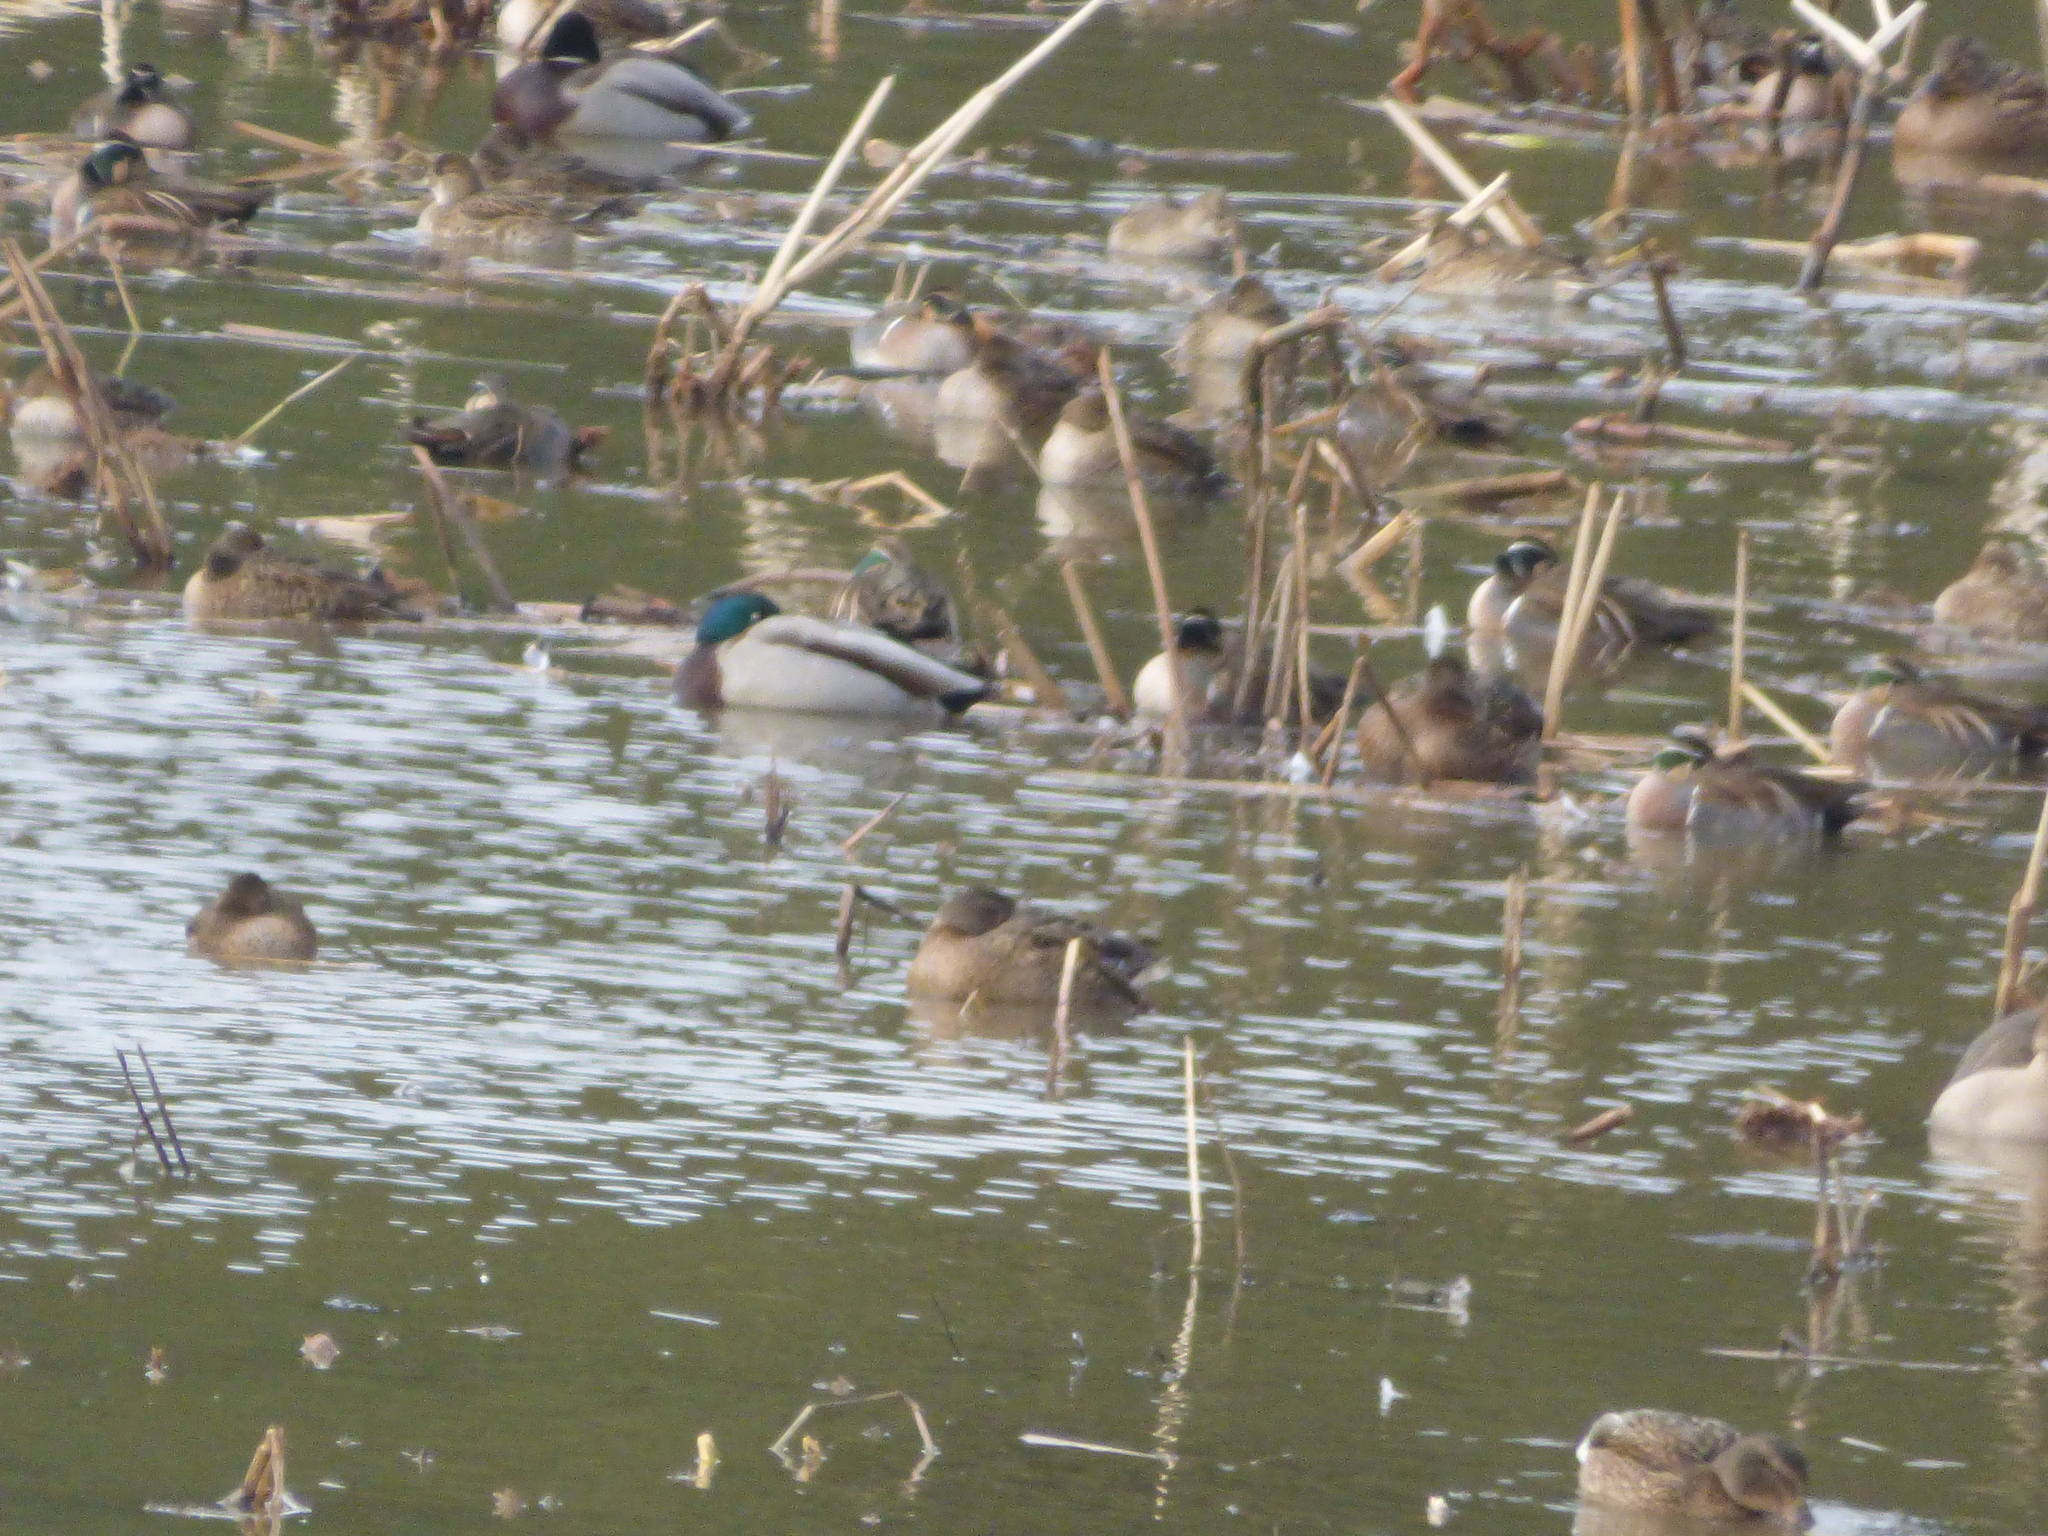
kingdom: Animalia
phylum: Chordata
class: Aves
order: Anseriformes
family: Anatidae
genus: Anas
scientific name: Anas platyrhynchos
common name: Mallard
